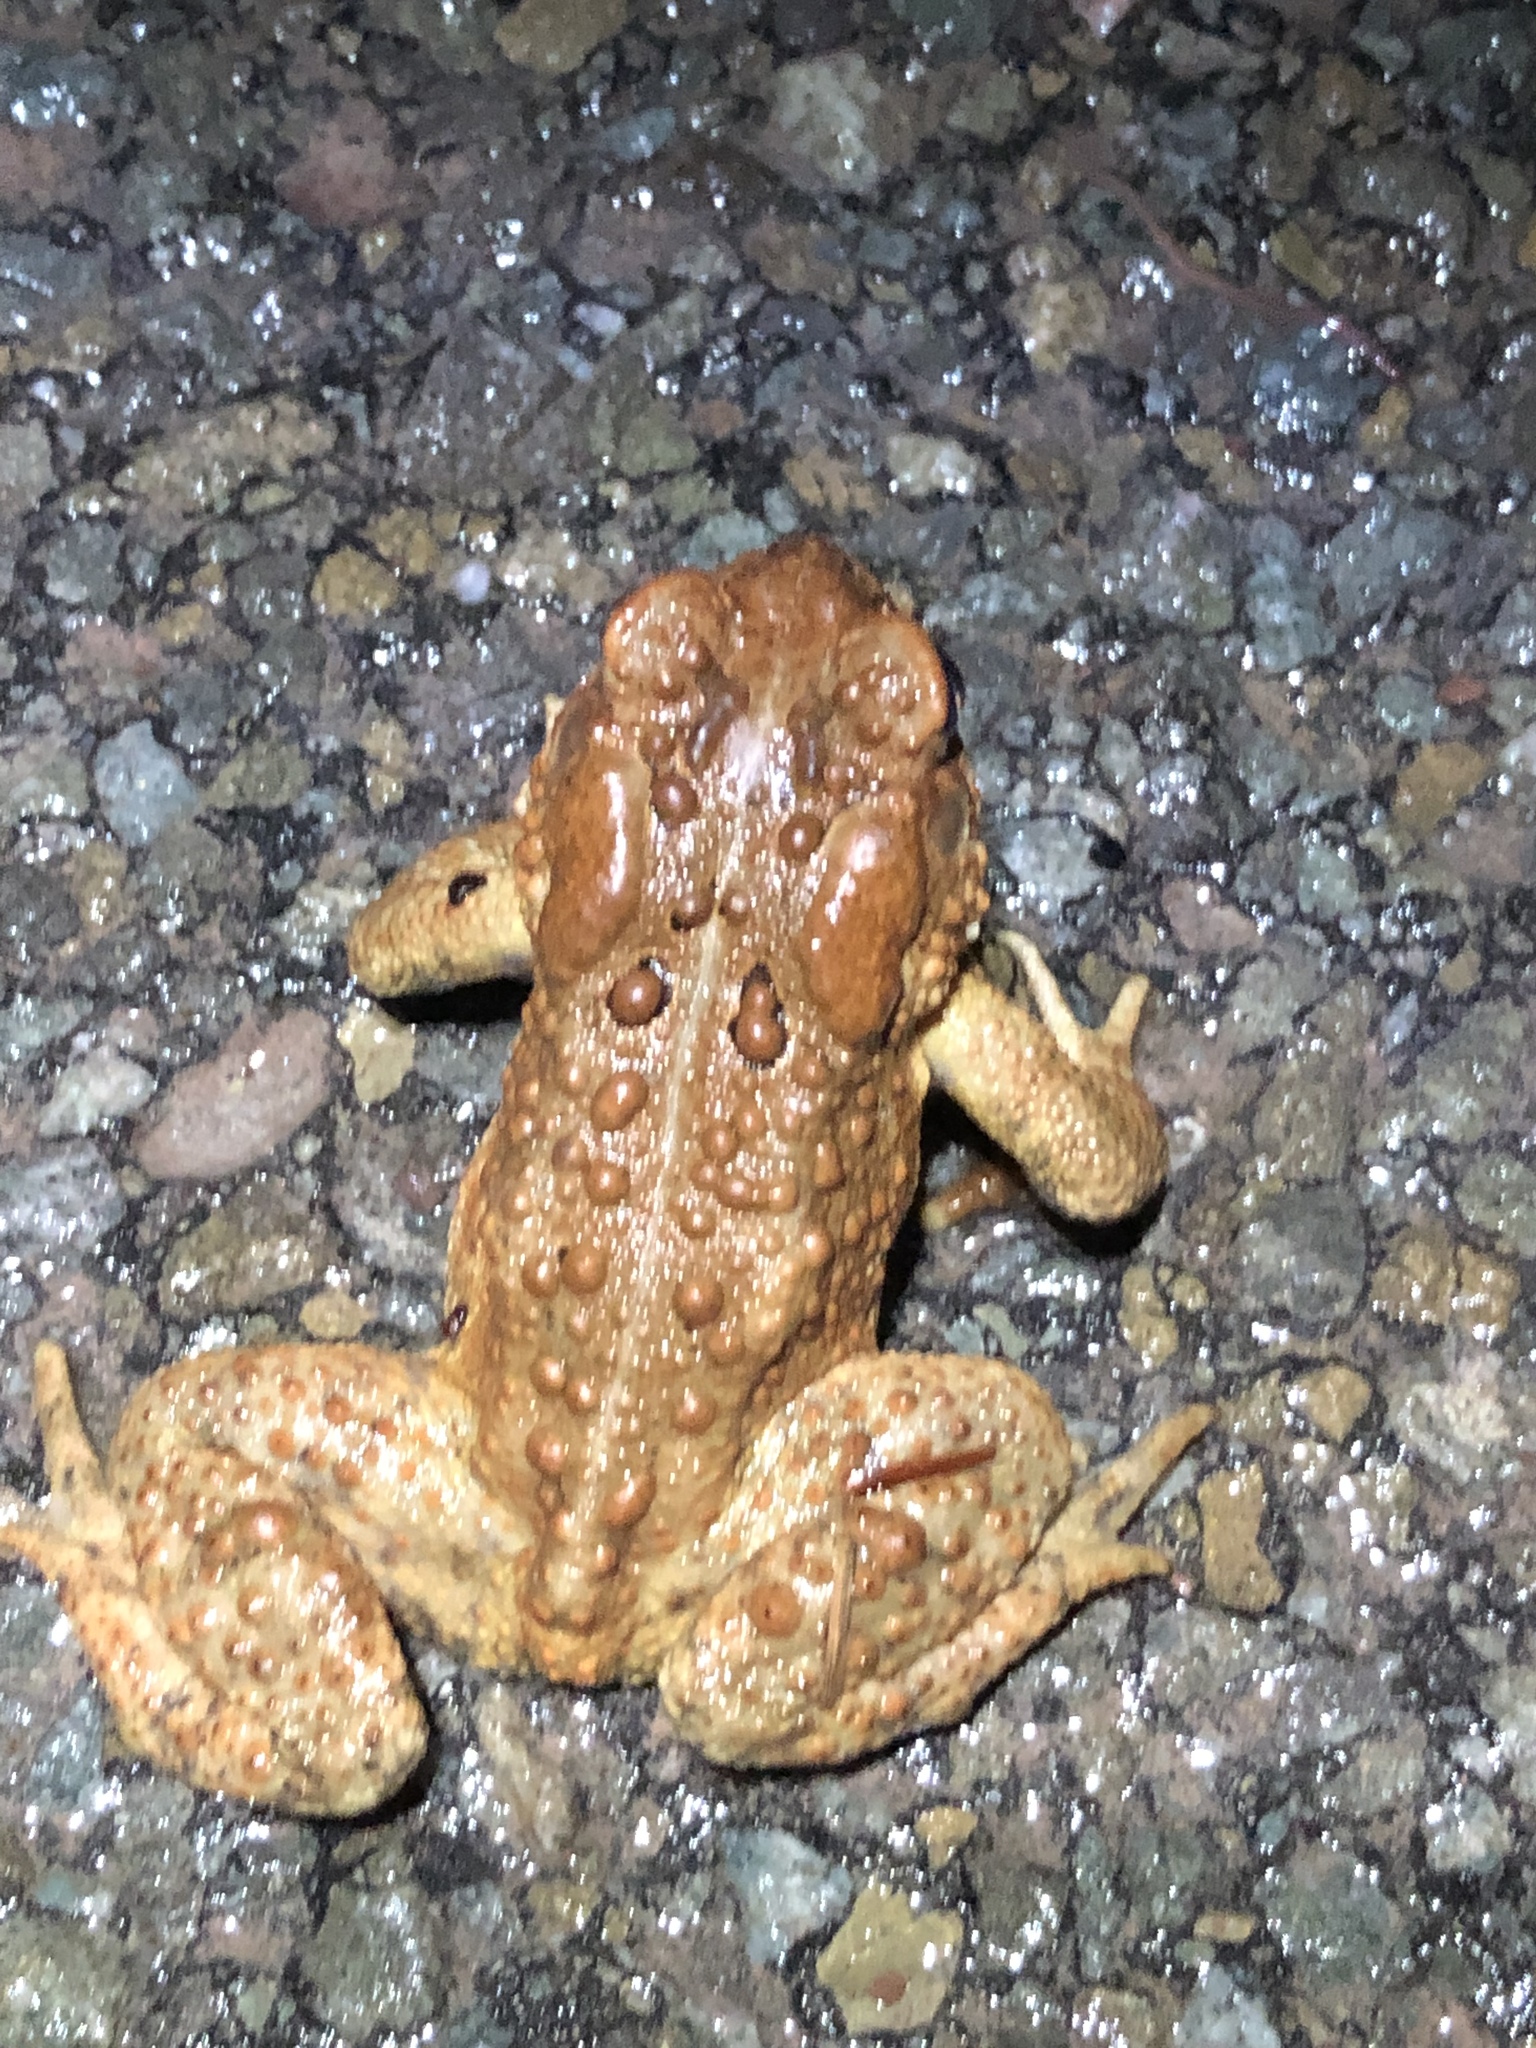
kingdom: Animalia
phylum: Chordata
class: Amphibia
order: Anura
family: Bufonidae
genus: Anaxyrus
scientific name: Anaxyrus americanus
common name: American toad
